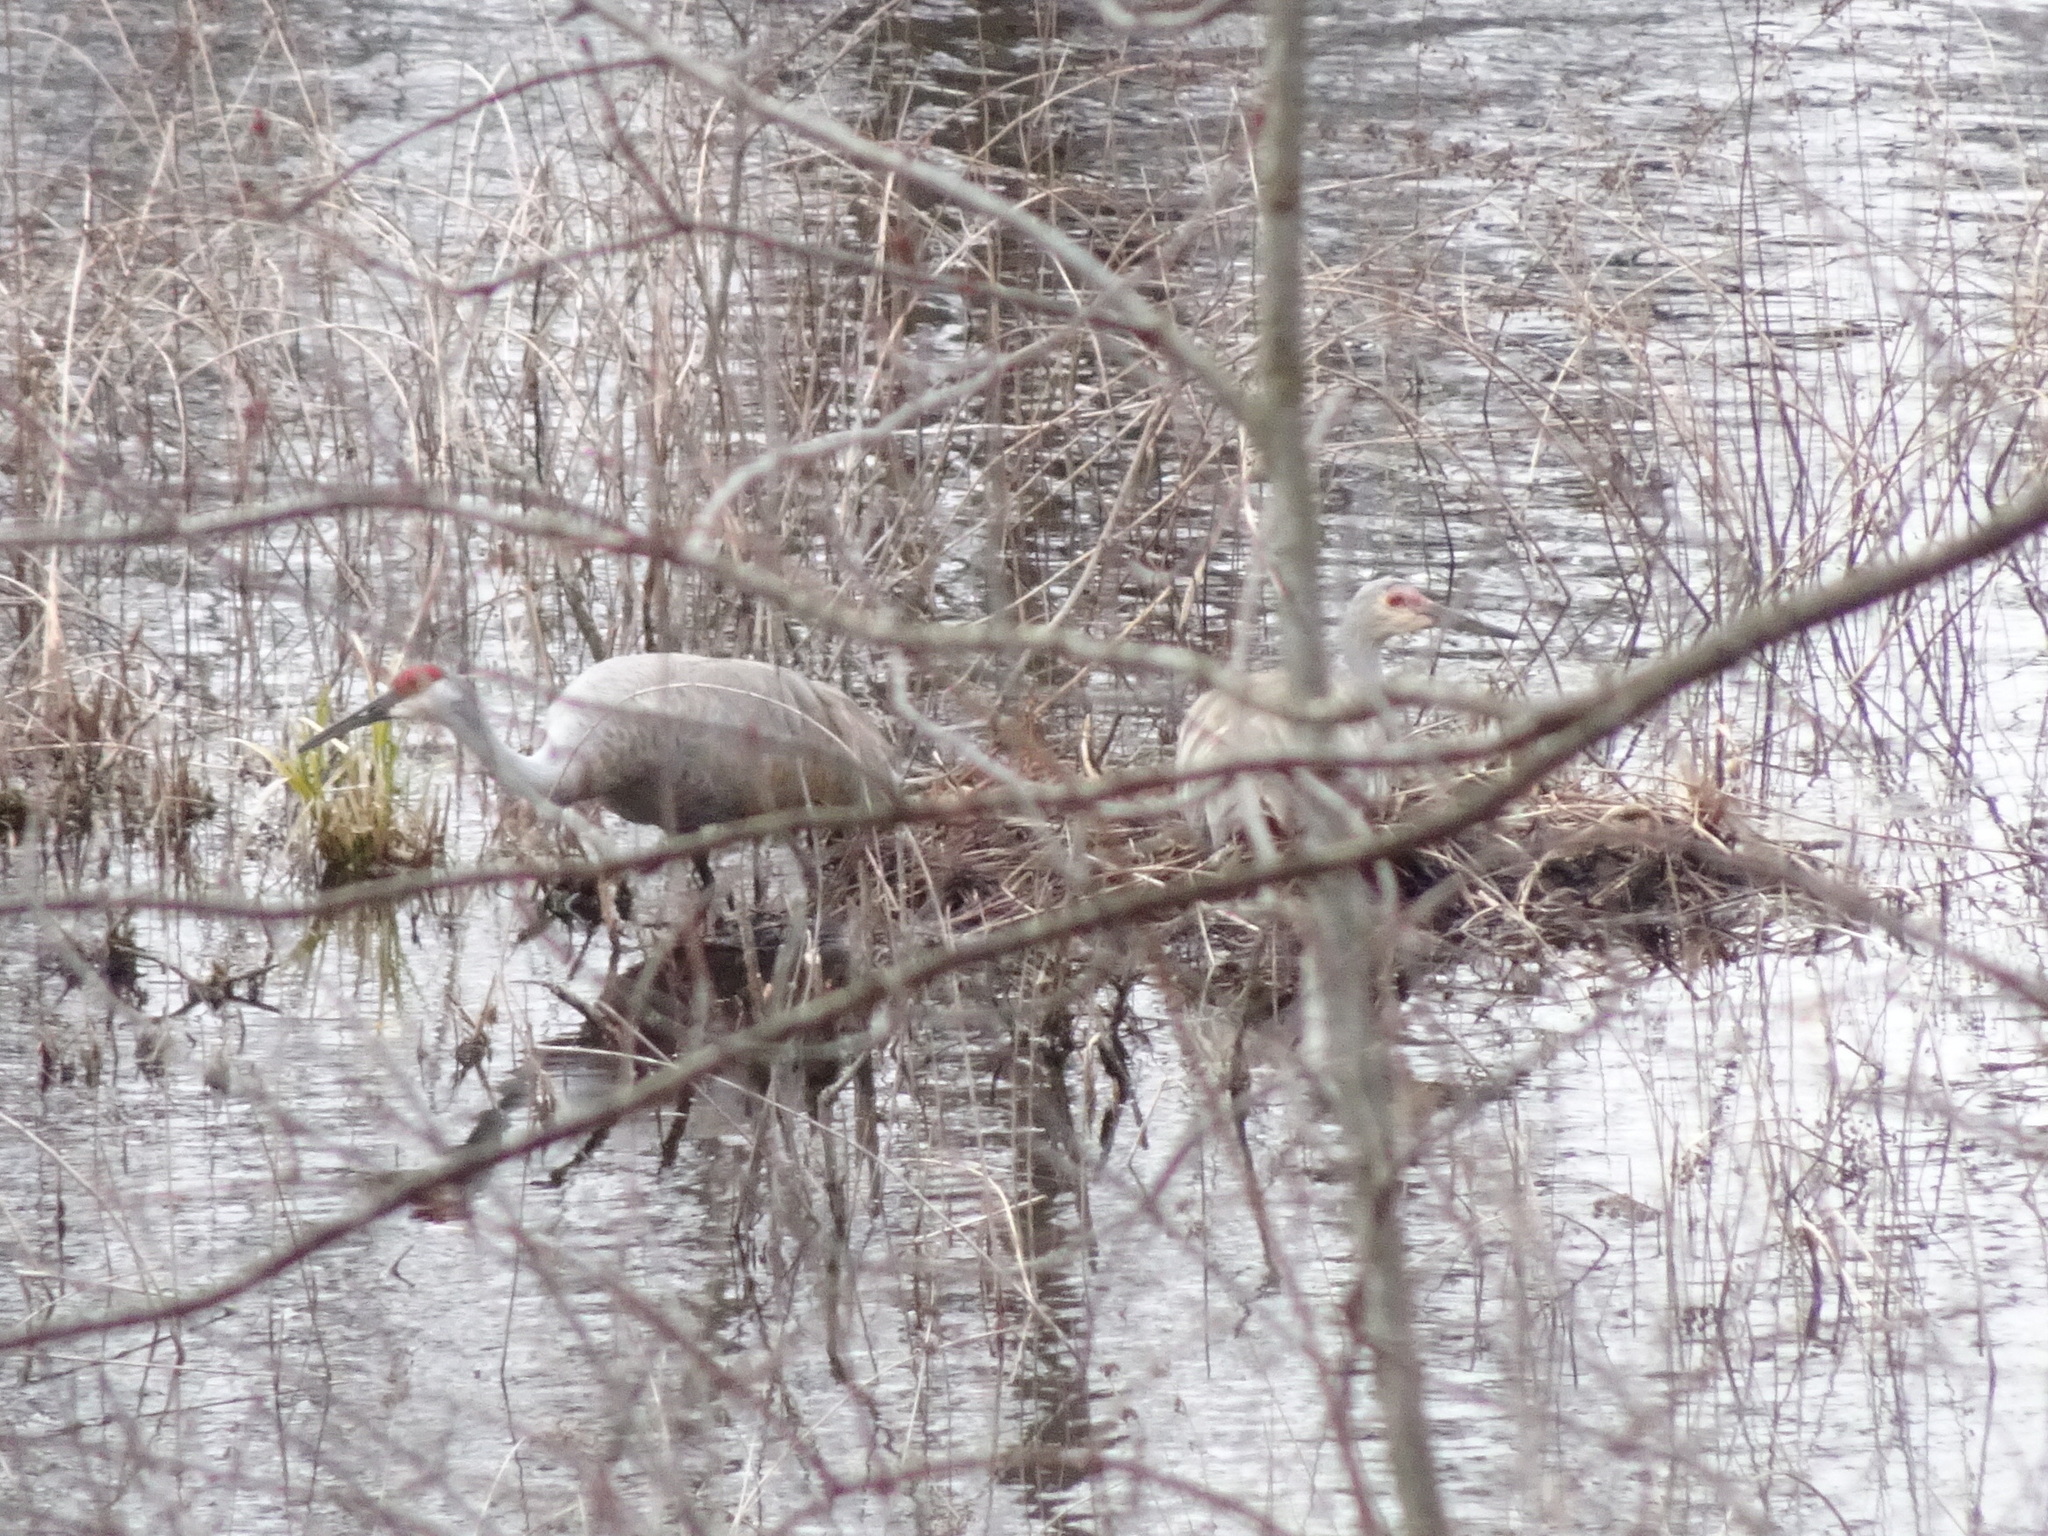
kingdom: Animalia
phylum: Chordata
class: Aves
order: Gruiformes
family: Gruidae
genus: Grus
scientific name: Grus canadensis
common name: Sandhill crane
